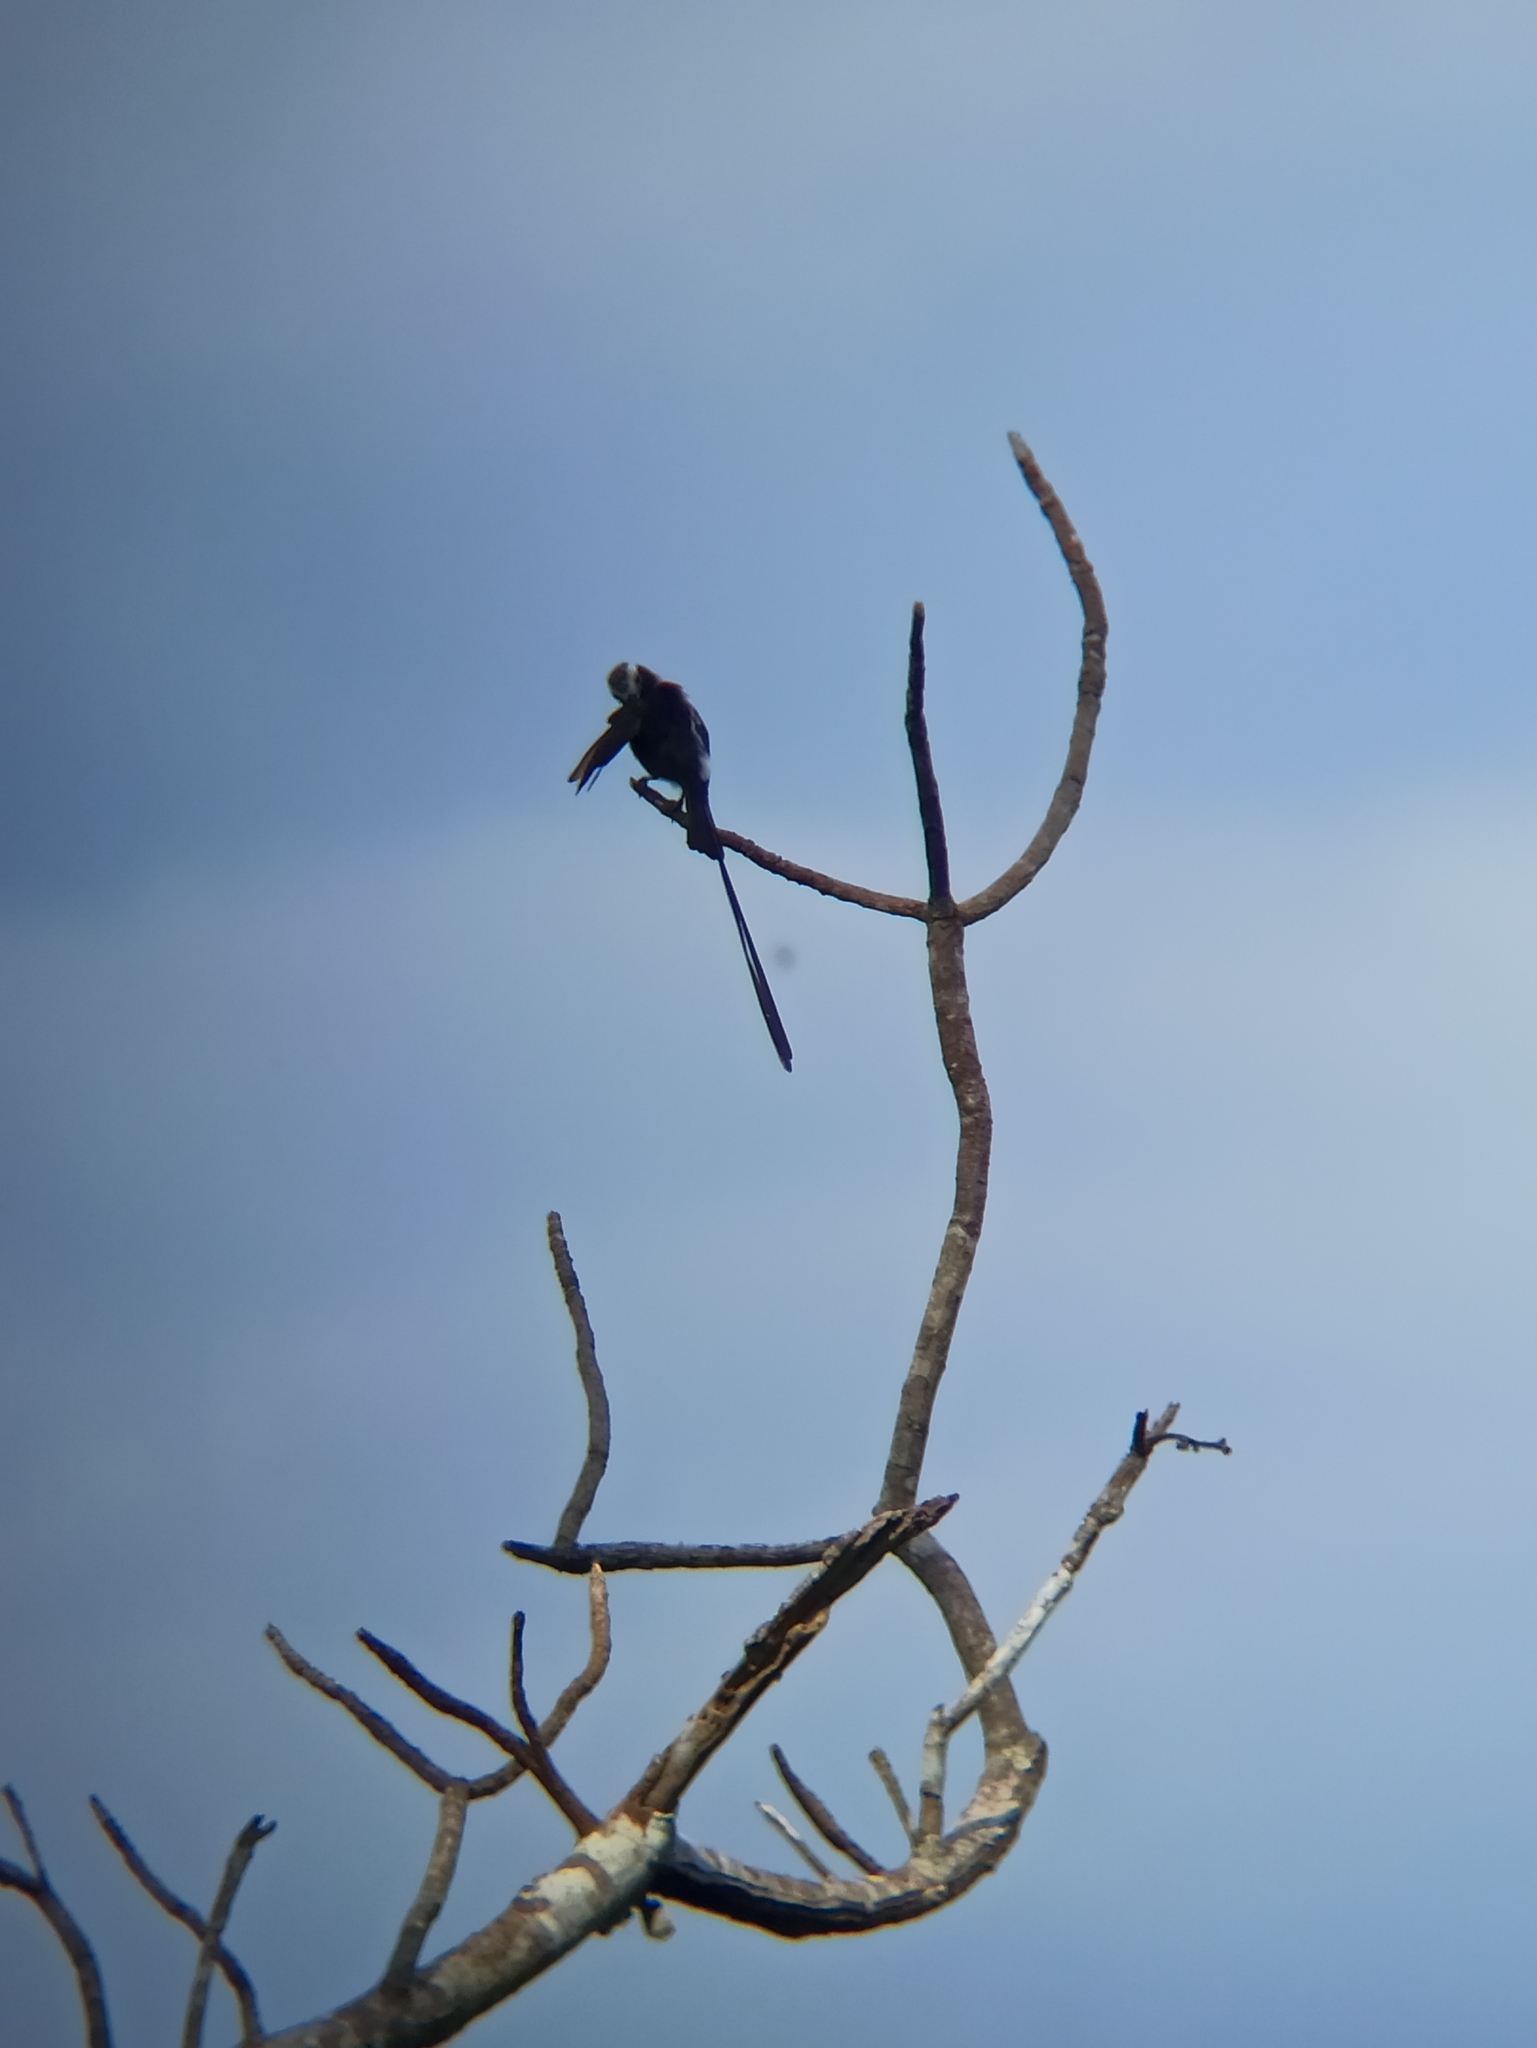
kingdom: Animalia
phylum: Chordata
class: Aves
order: Passeriformes
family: Tyrannidae
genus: Colonia
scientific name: Colonia colonus
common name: Long-tailed tyrant
